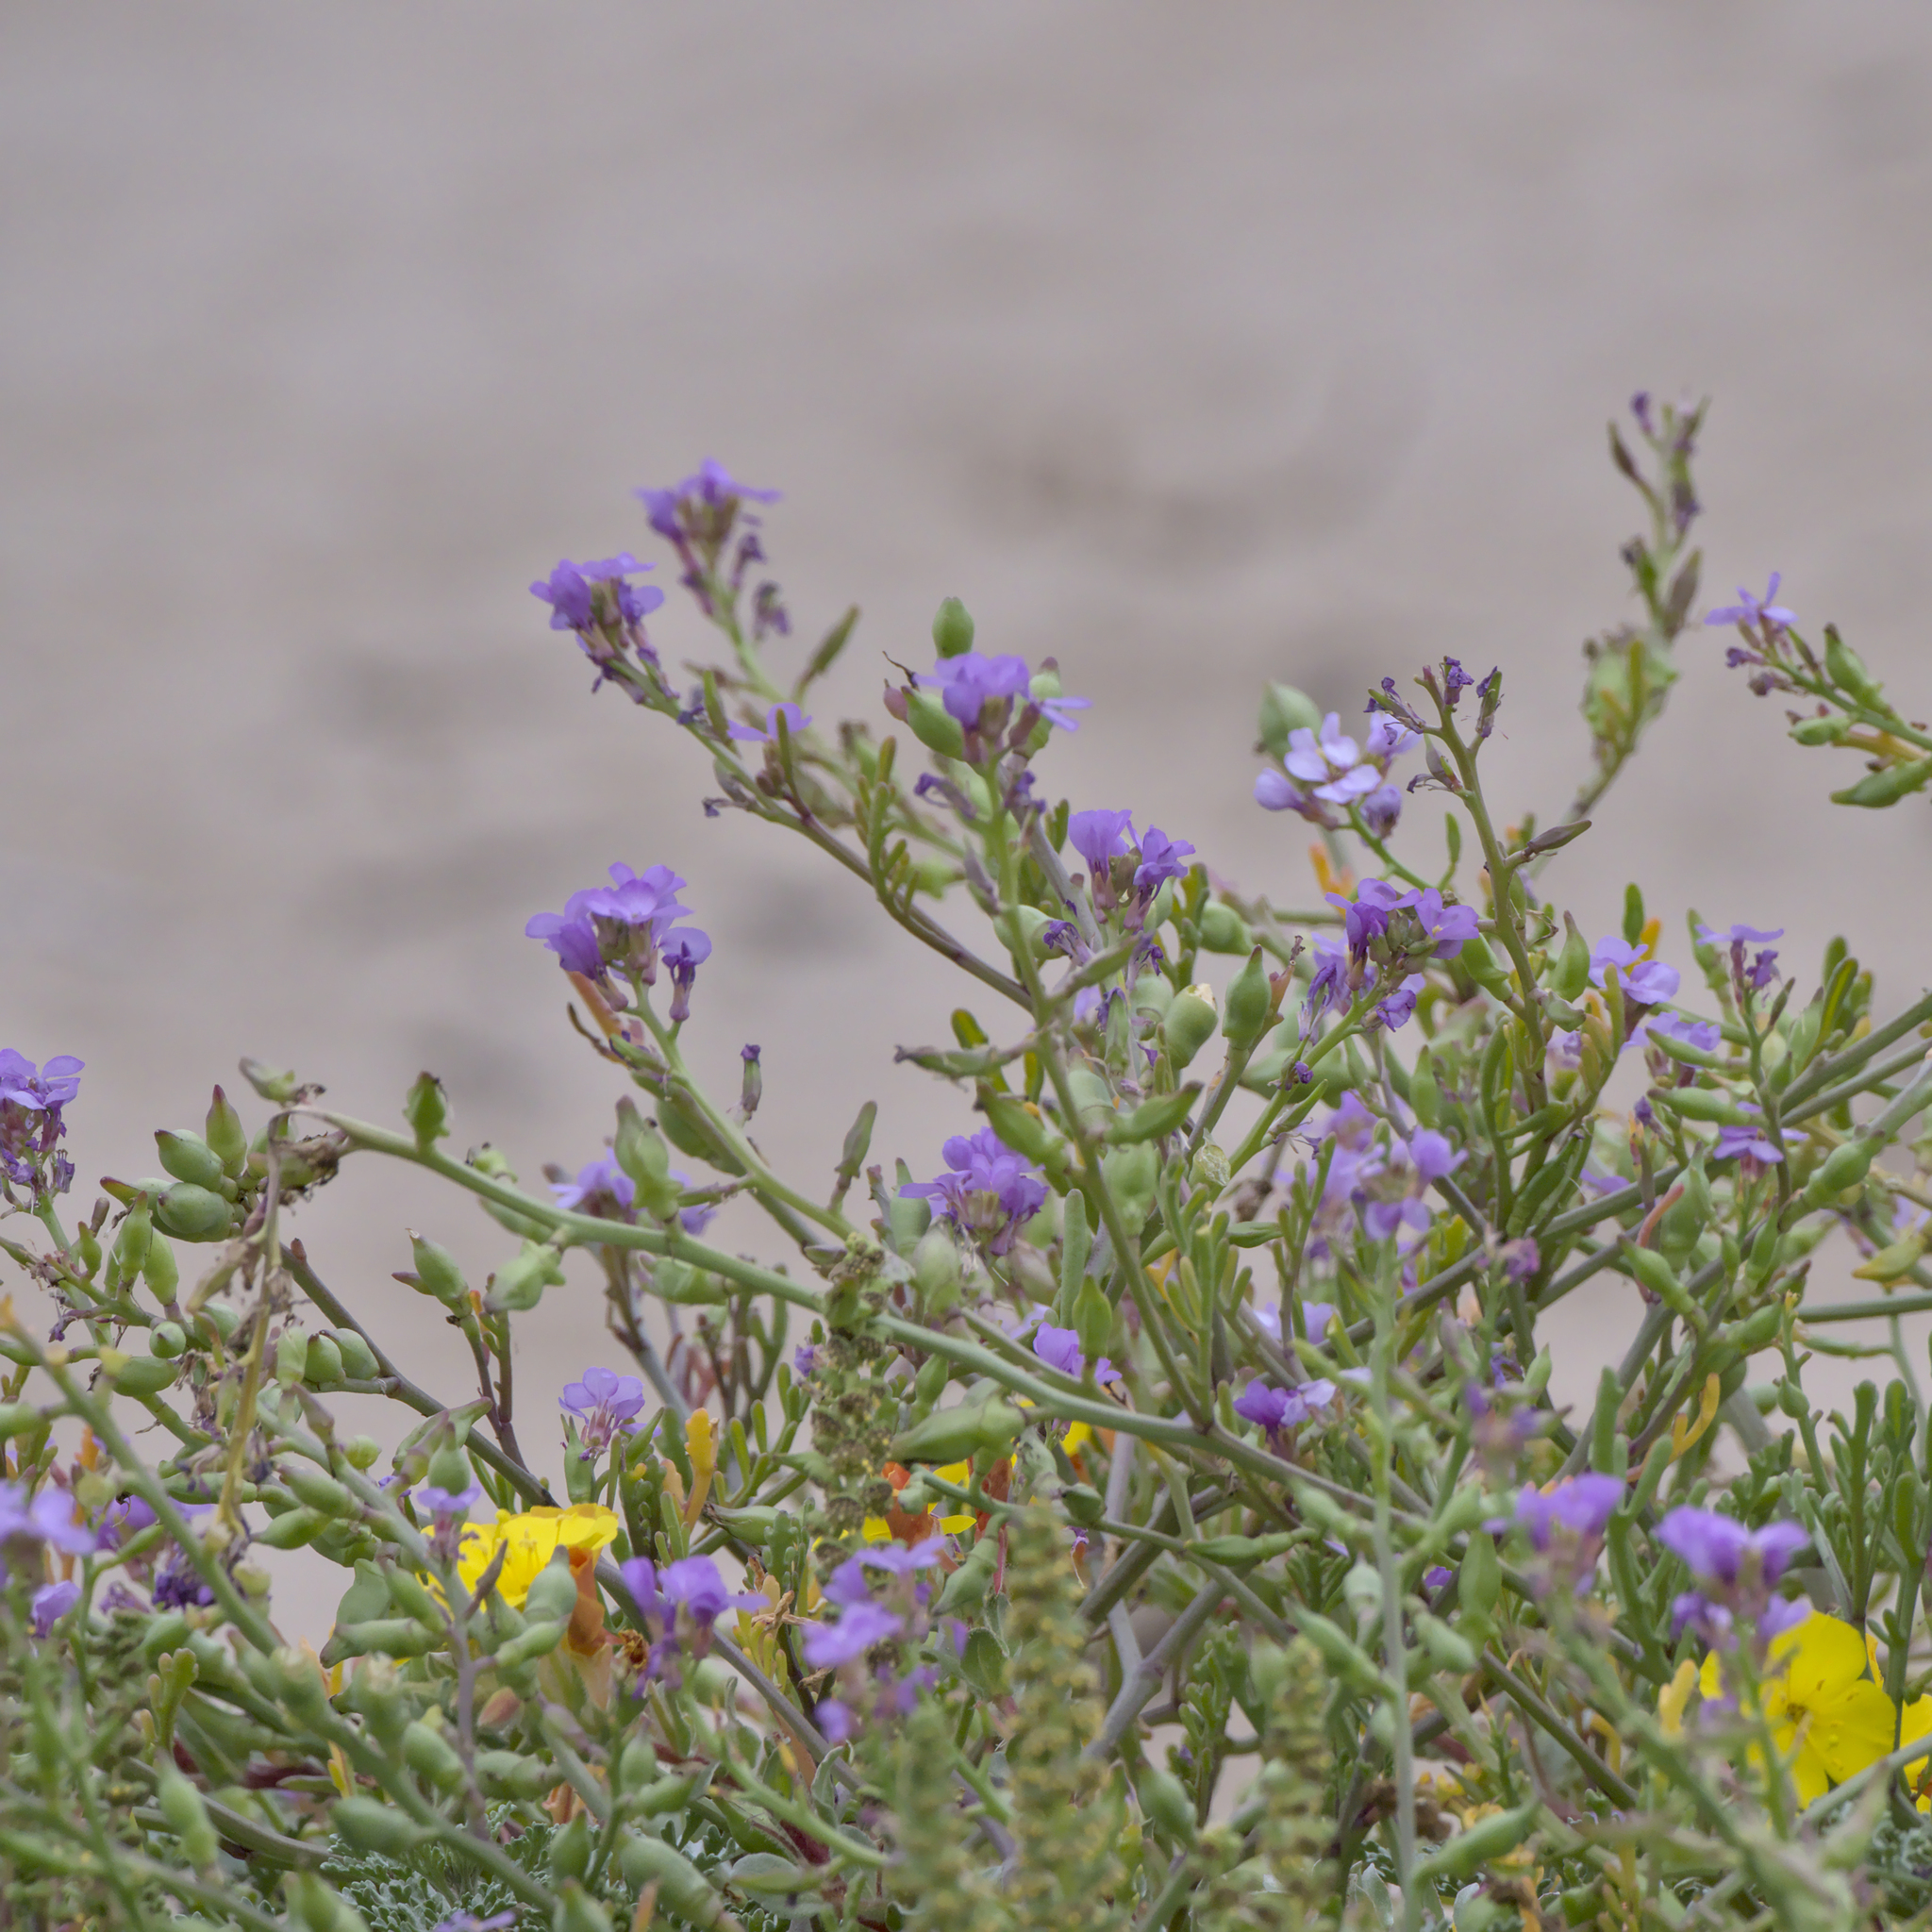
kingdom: Plantae
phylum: Tracheophyta
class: Magnoliopsida
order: Brassicales
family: Brassicaceae
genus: Cakile
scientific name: Cakile maritima
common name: Sea rocket
